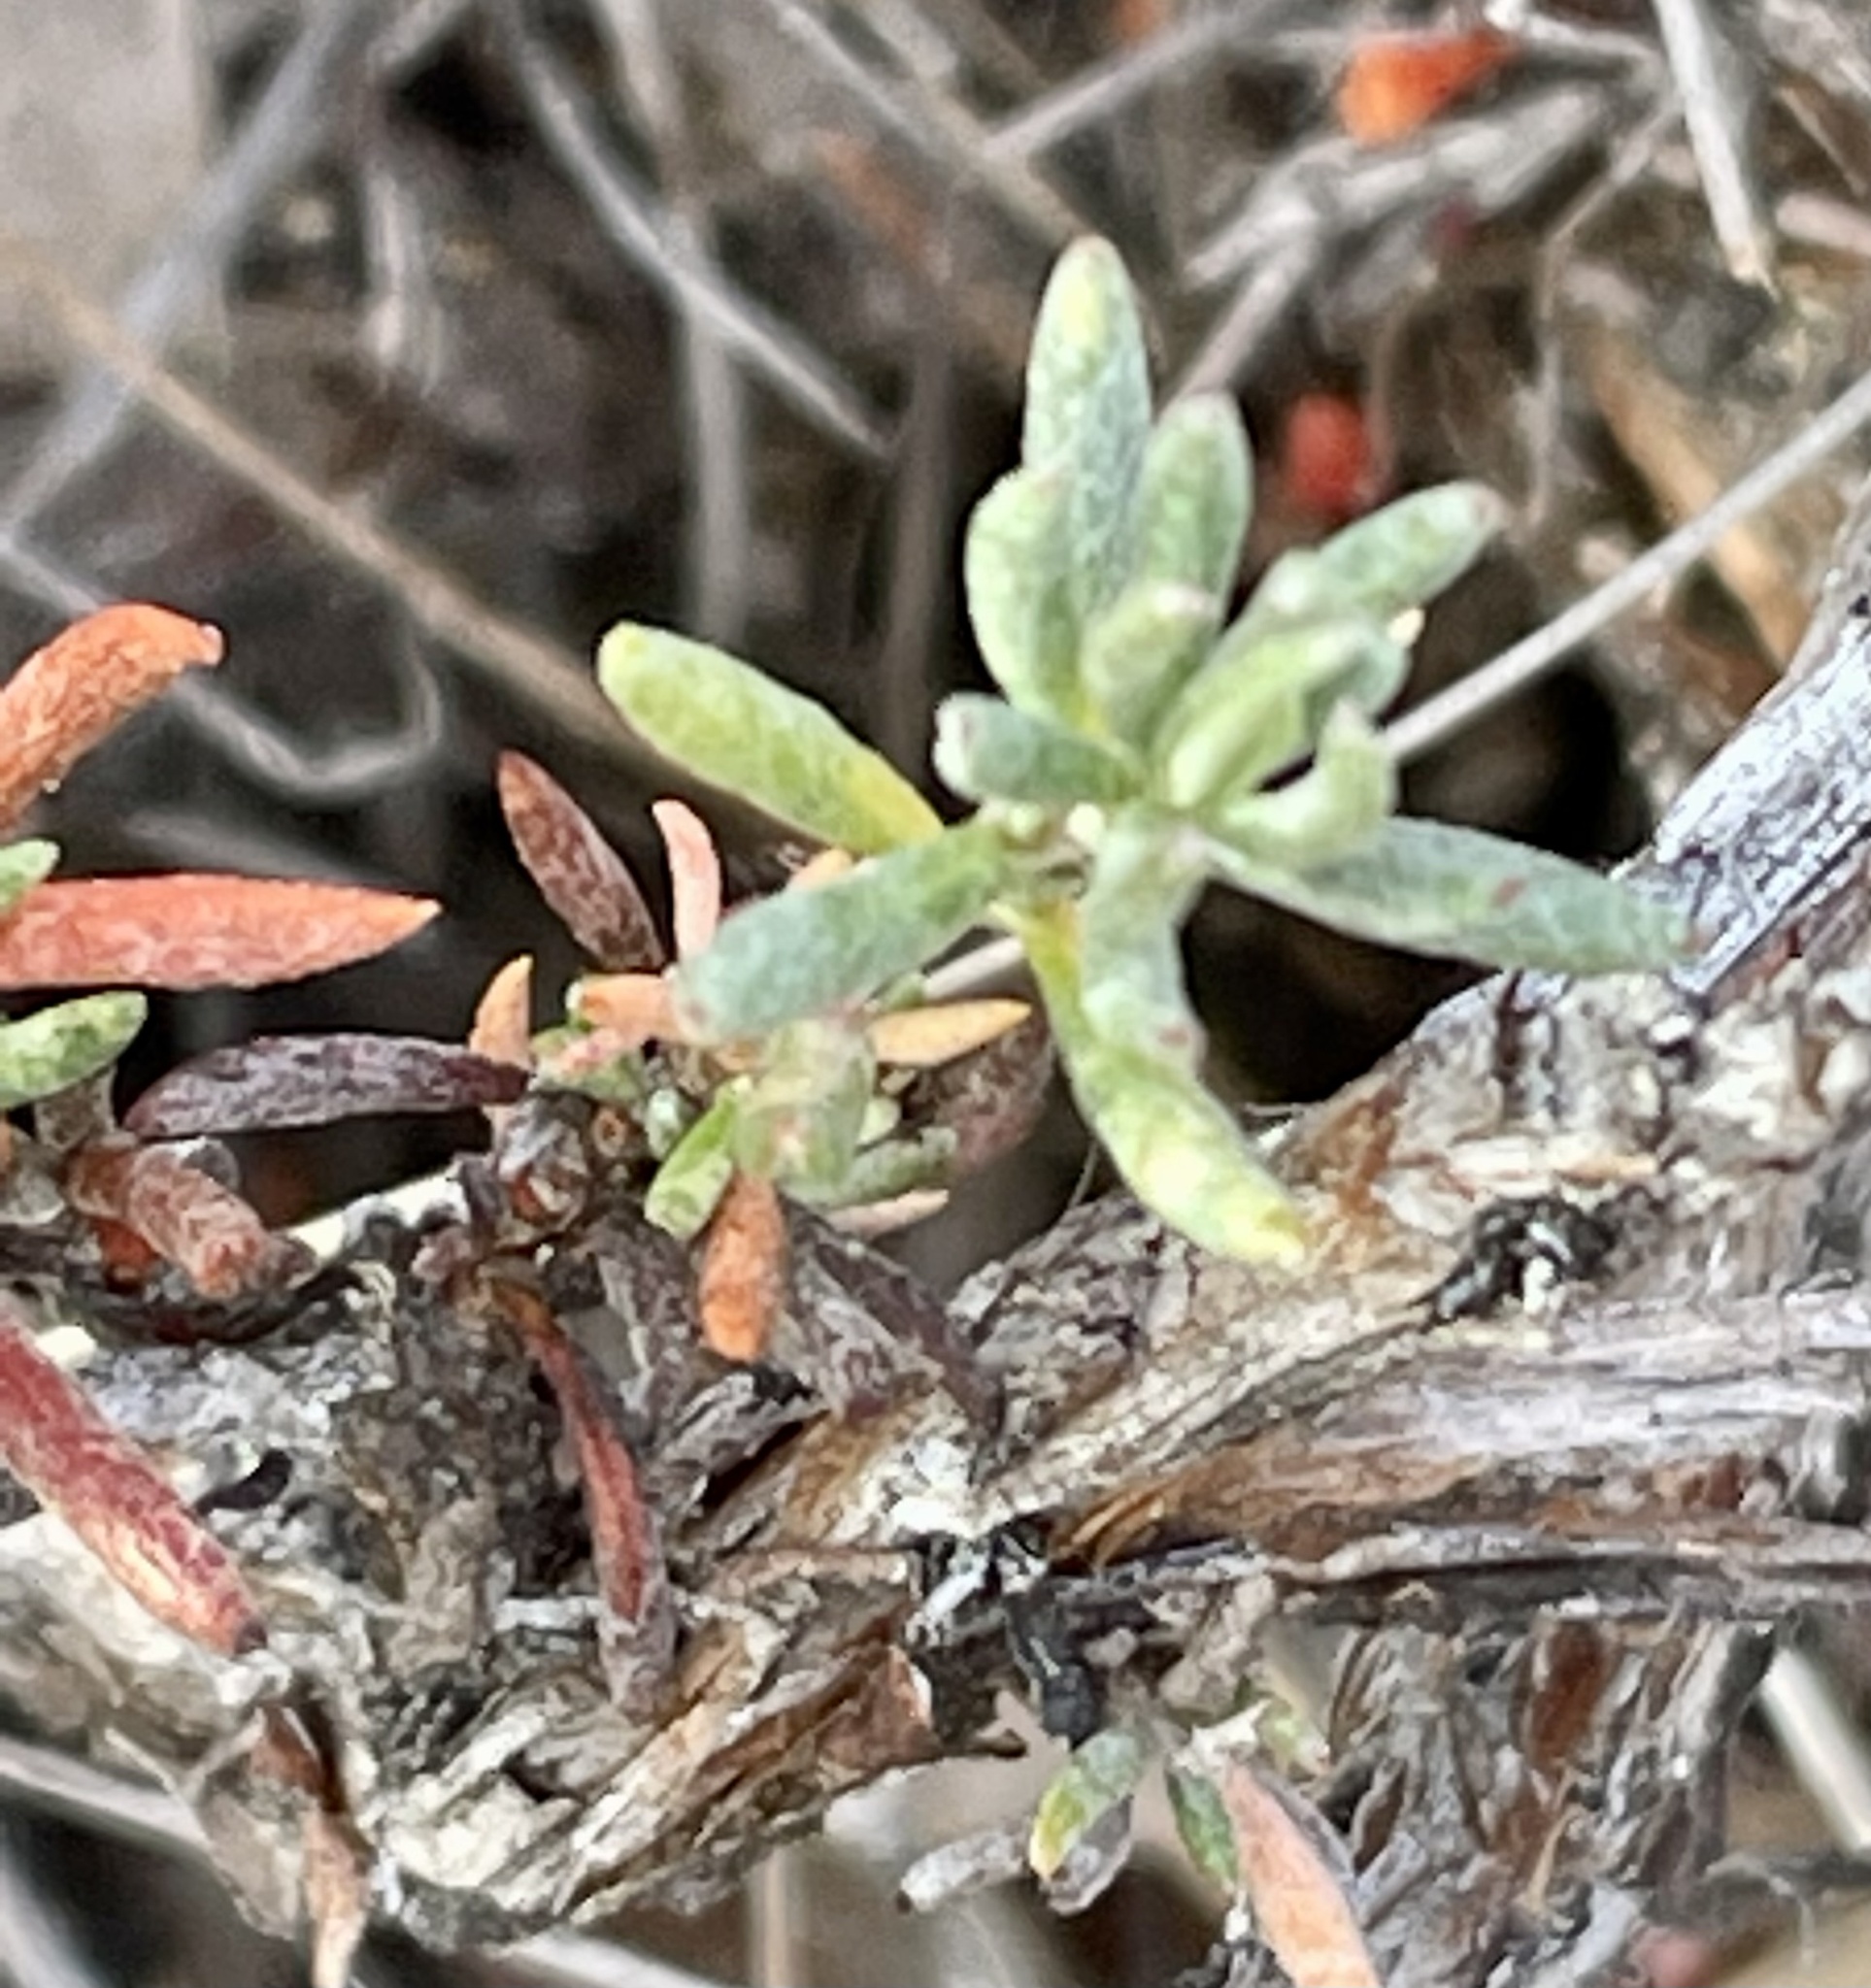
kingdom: Plantae
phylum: Tracheophyta
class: Magnoliopsida
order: Caryophyllales
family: Polygonaceae
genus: Eriogonum
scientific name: Eriogonum wrightii
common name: Bastard-sage
